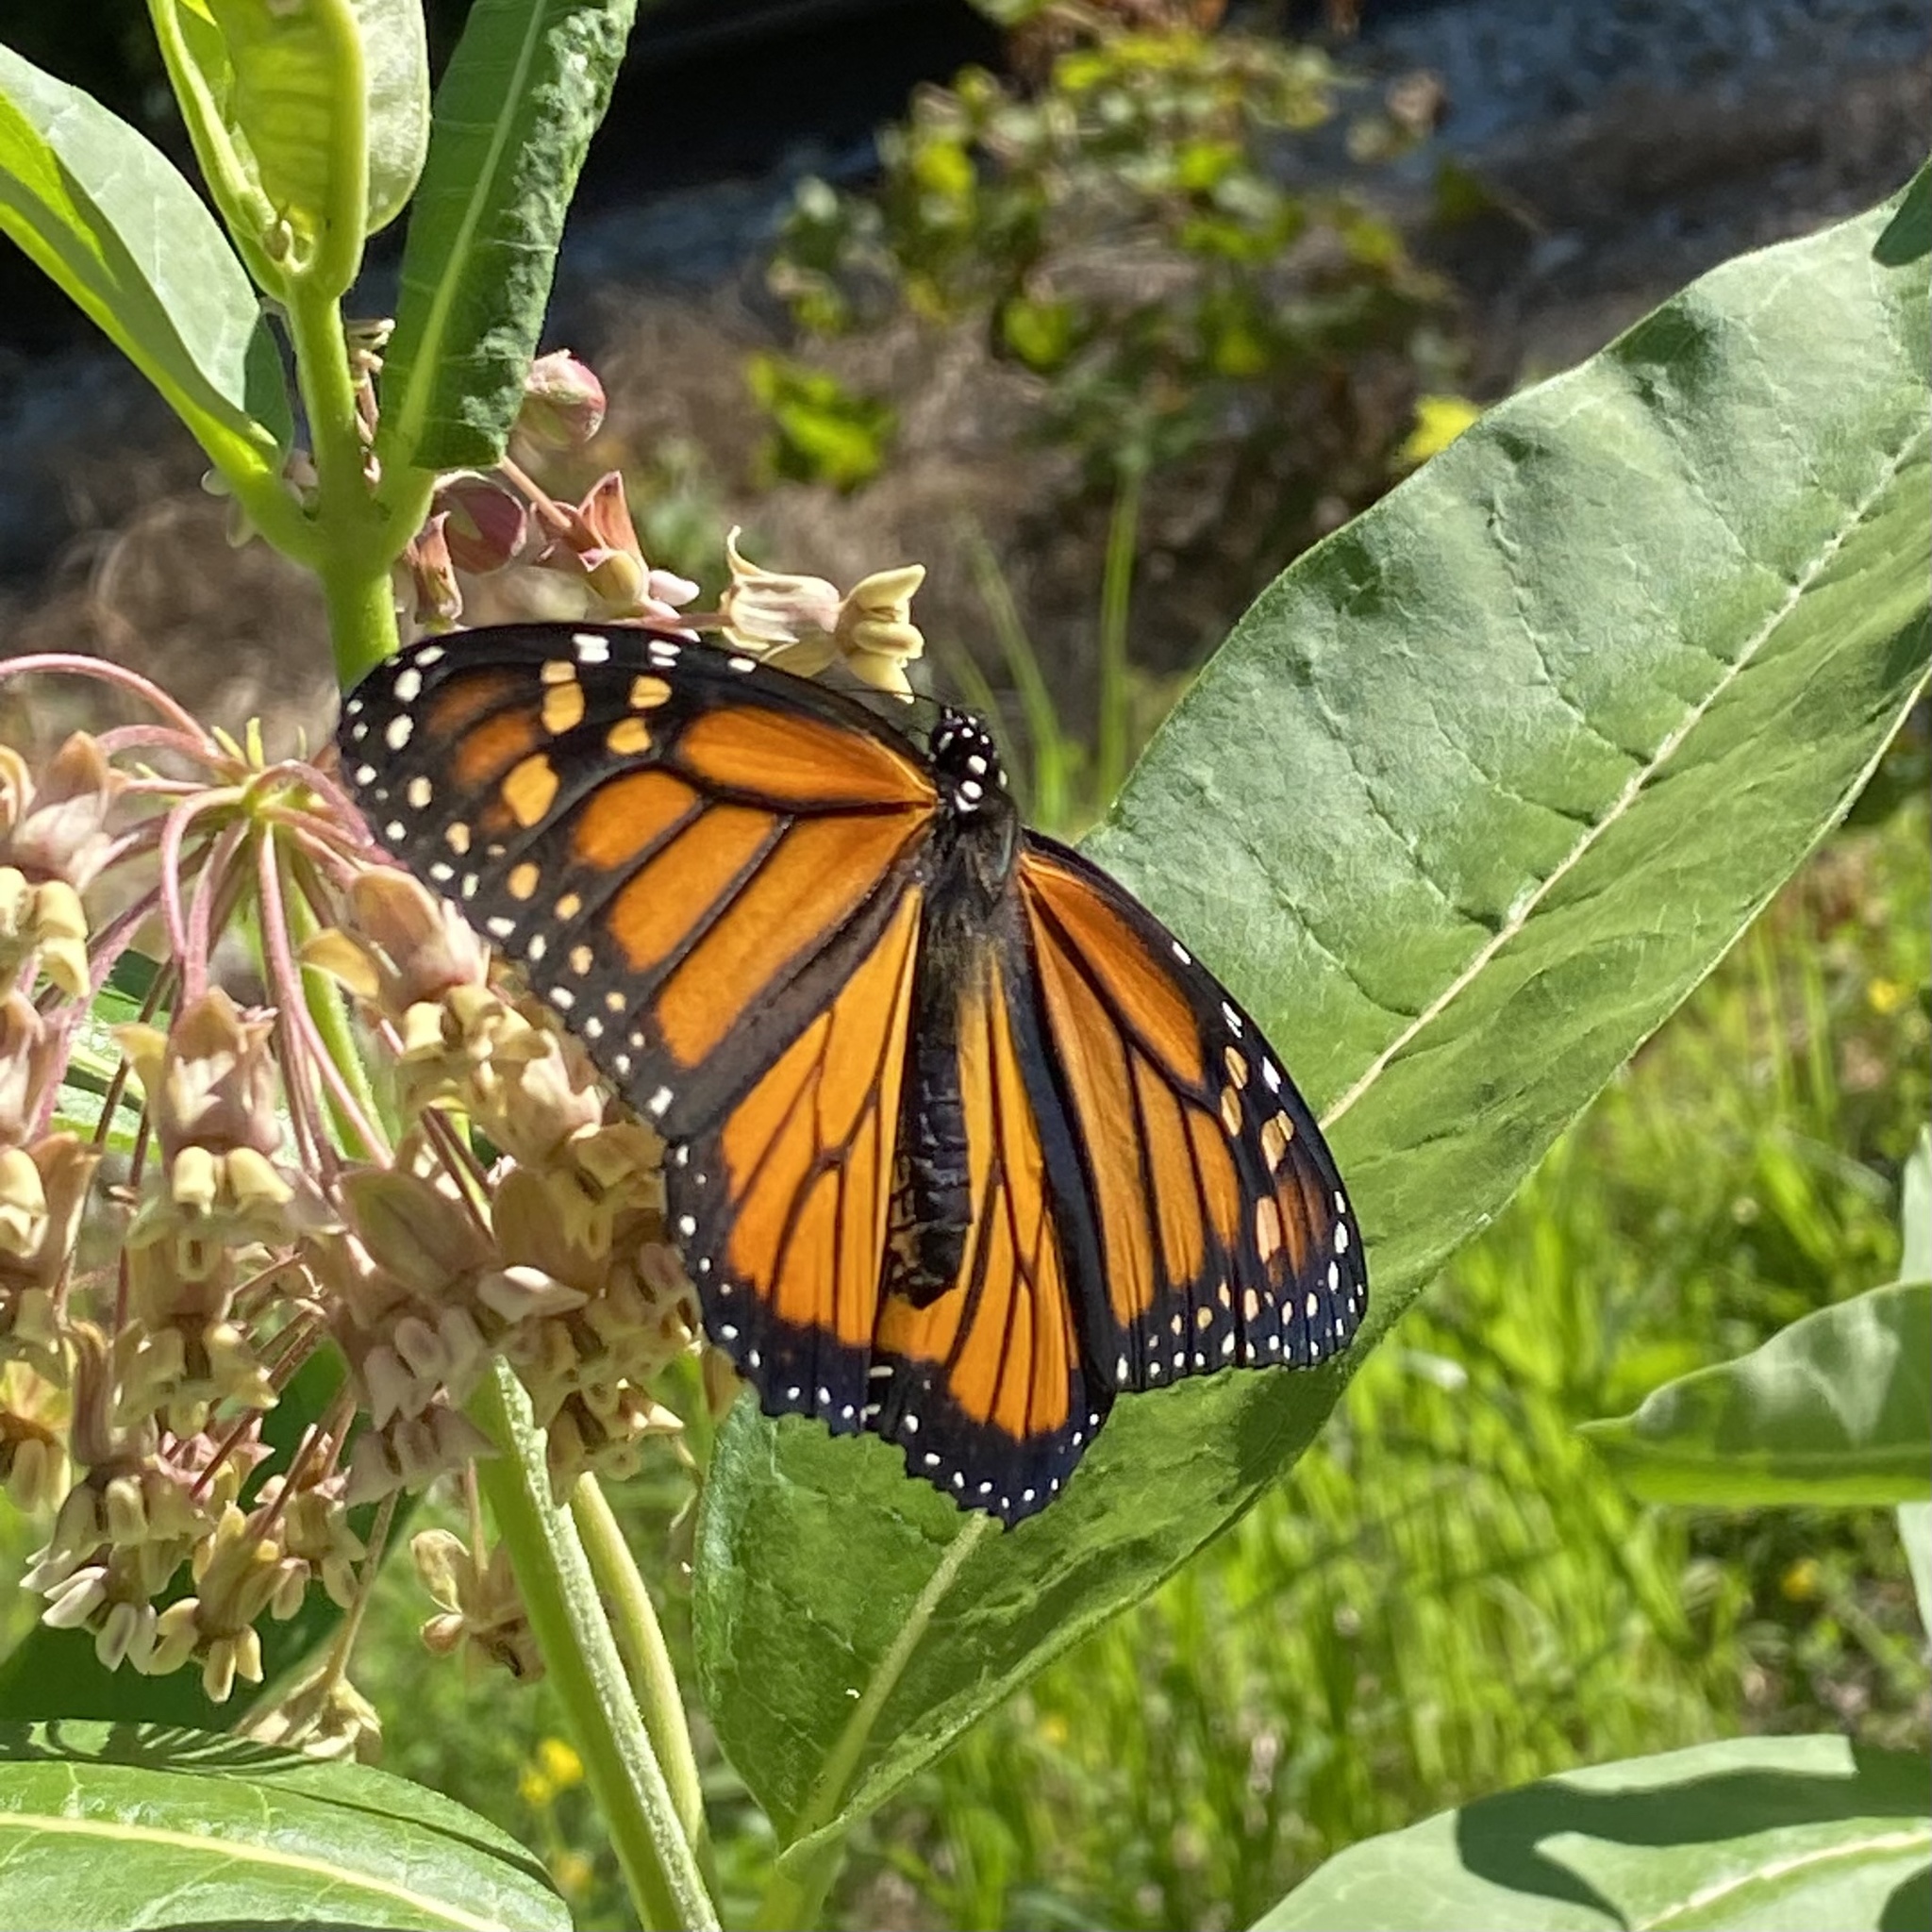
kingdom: Animalia
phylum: Arthropoda
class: Insecta
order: Lepidoptera
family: Nymphalidae
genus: Danaus
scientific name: Danaus plexippus
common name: Monarch
